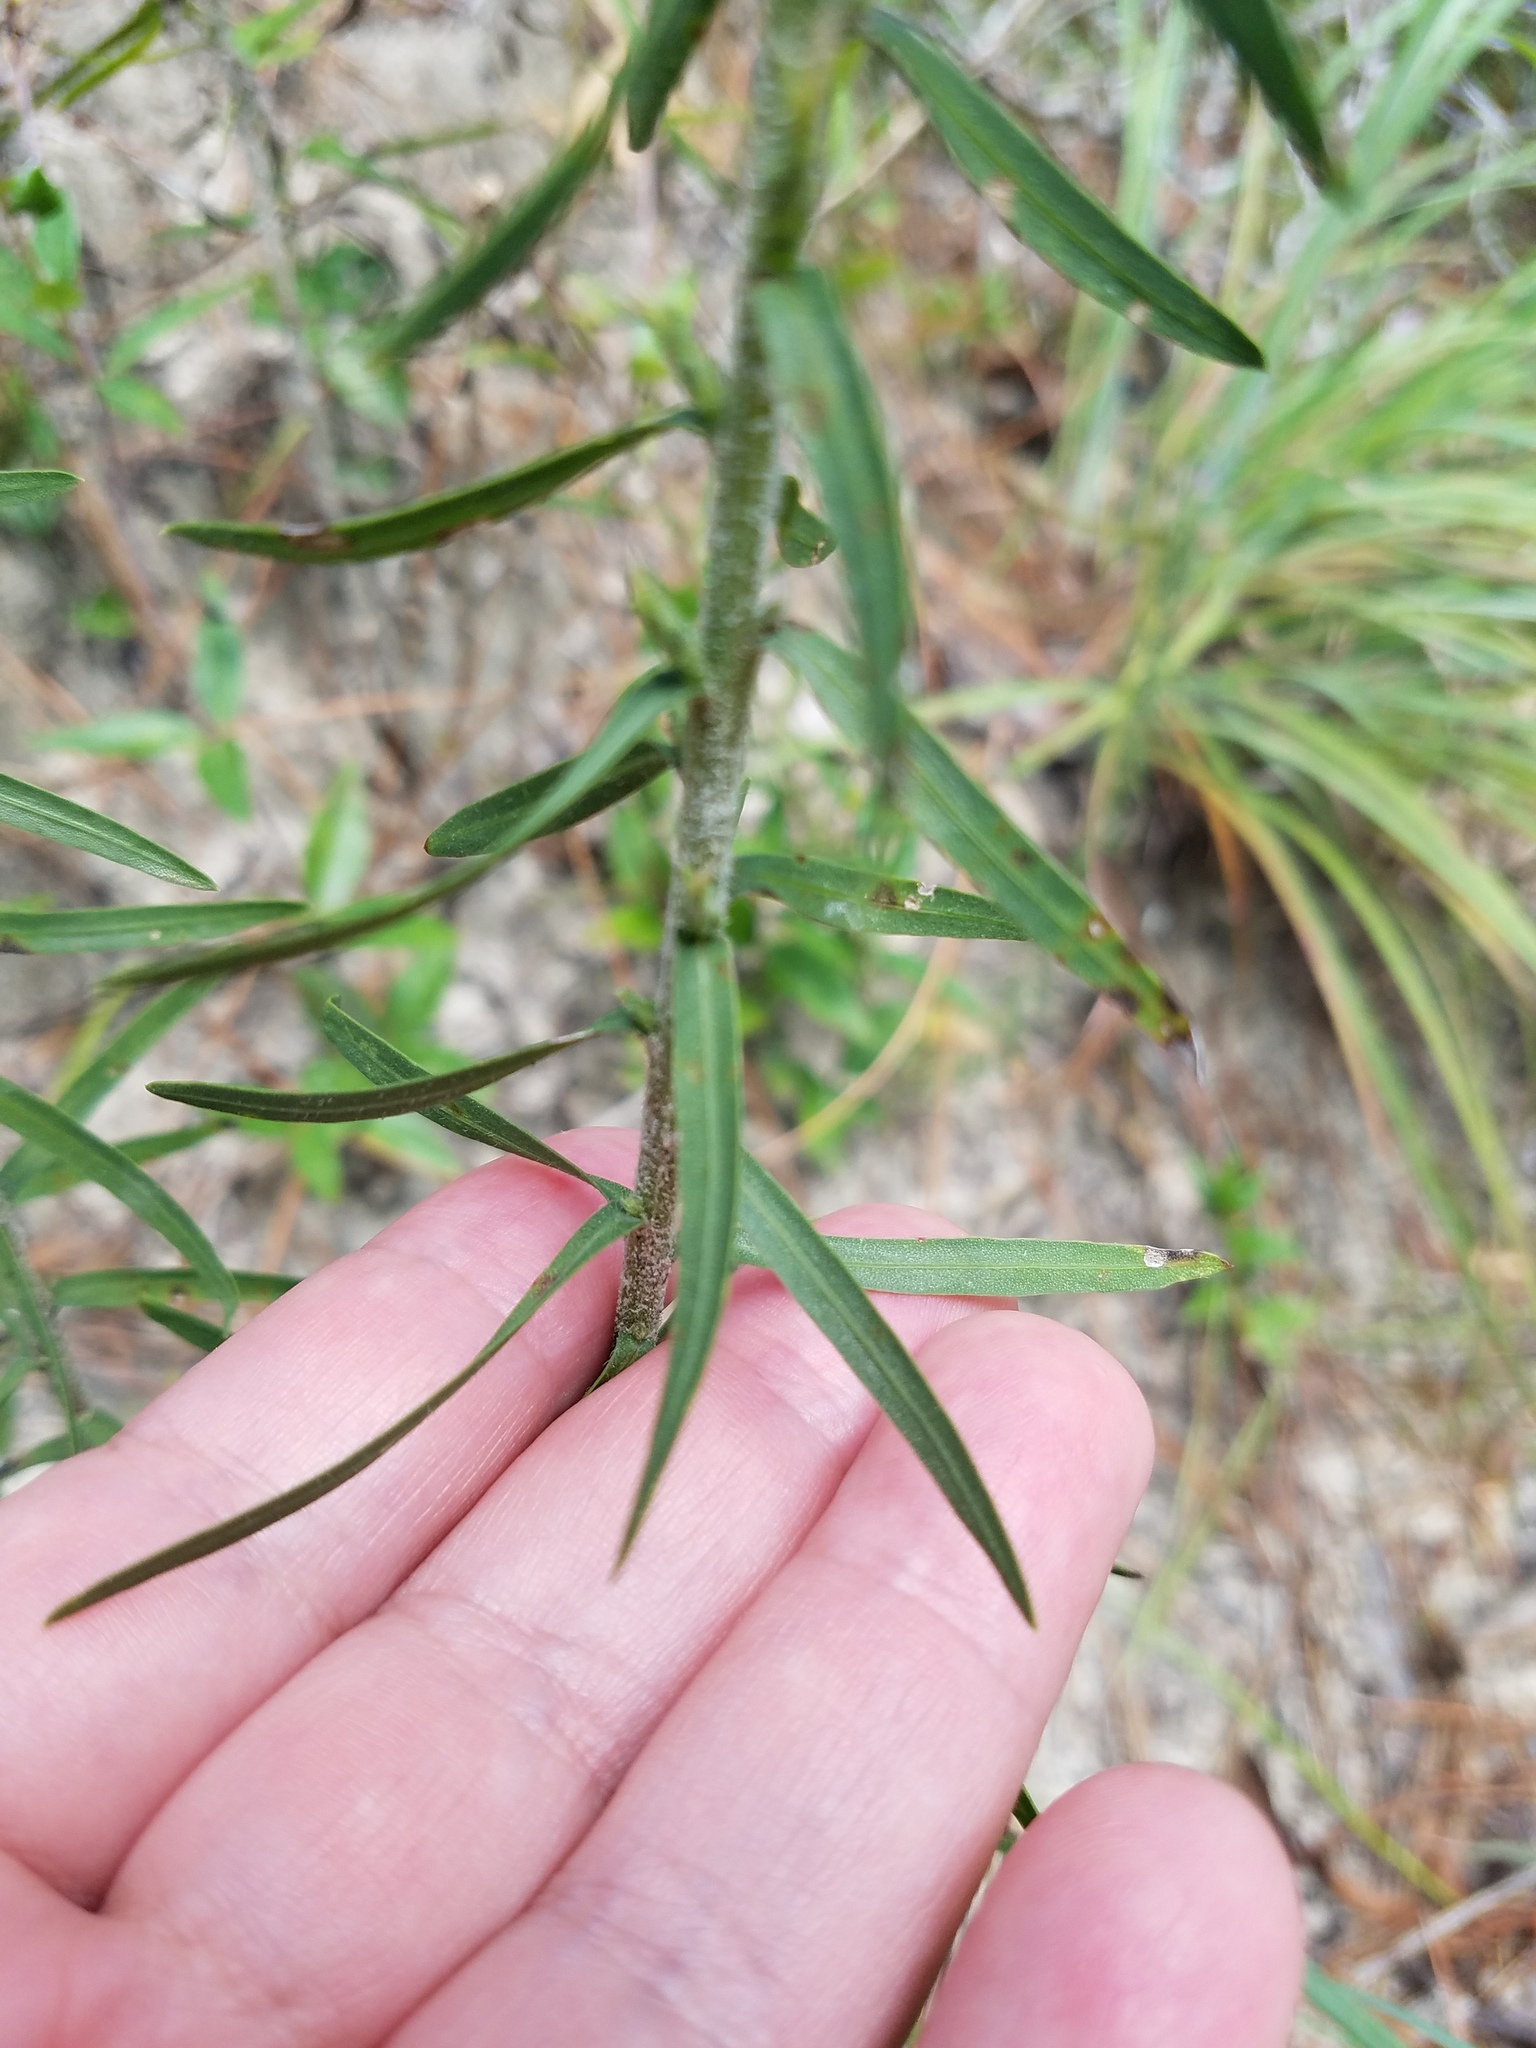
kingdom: Plantae
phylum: Tracheophyta
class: Magnoliopsida
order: Asterales
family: Asteraceae
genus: Liatris
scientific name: Liatris elegans
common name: Pinkscale gayfeather
